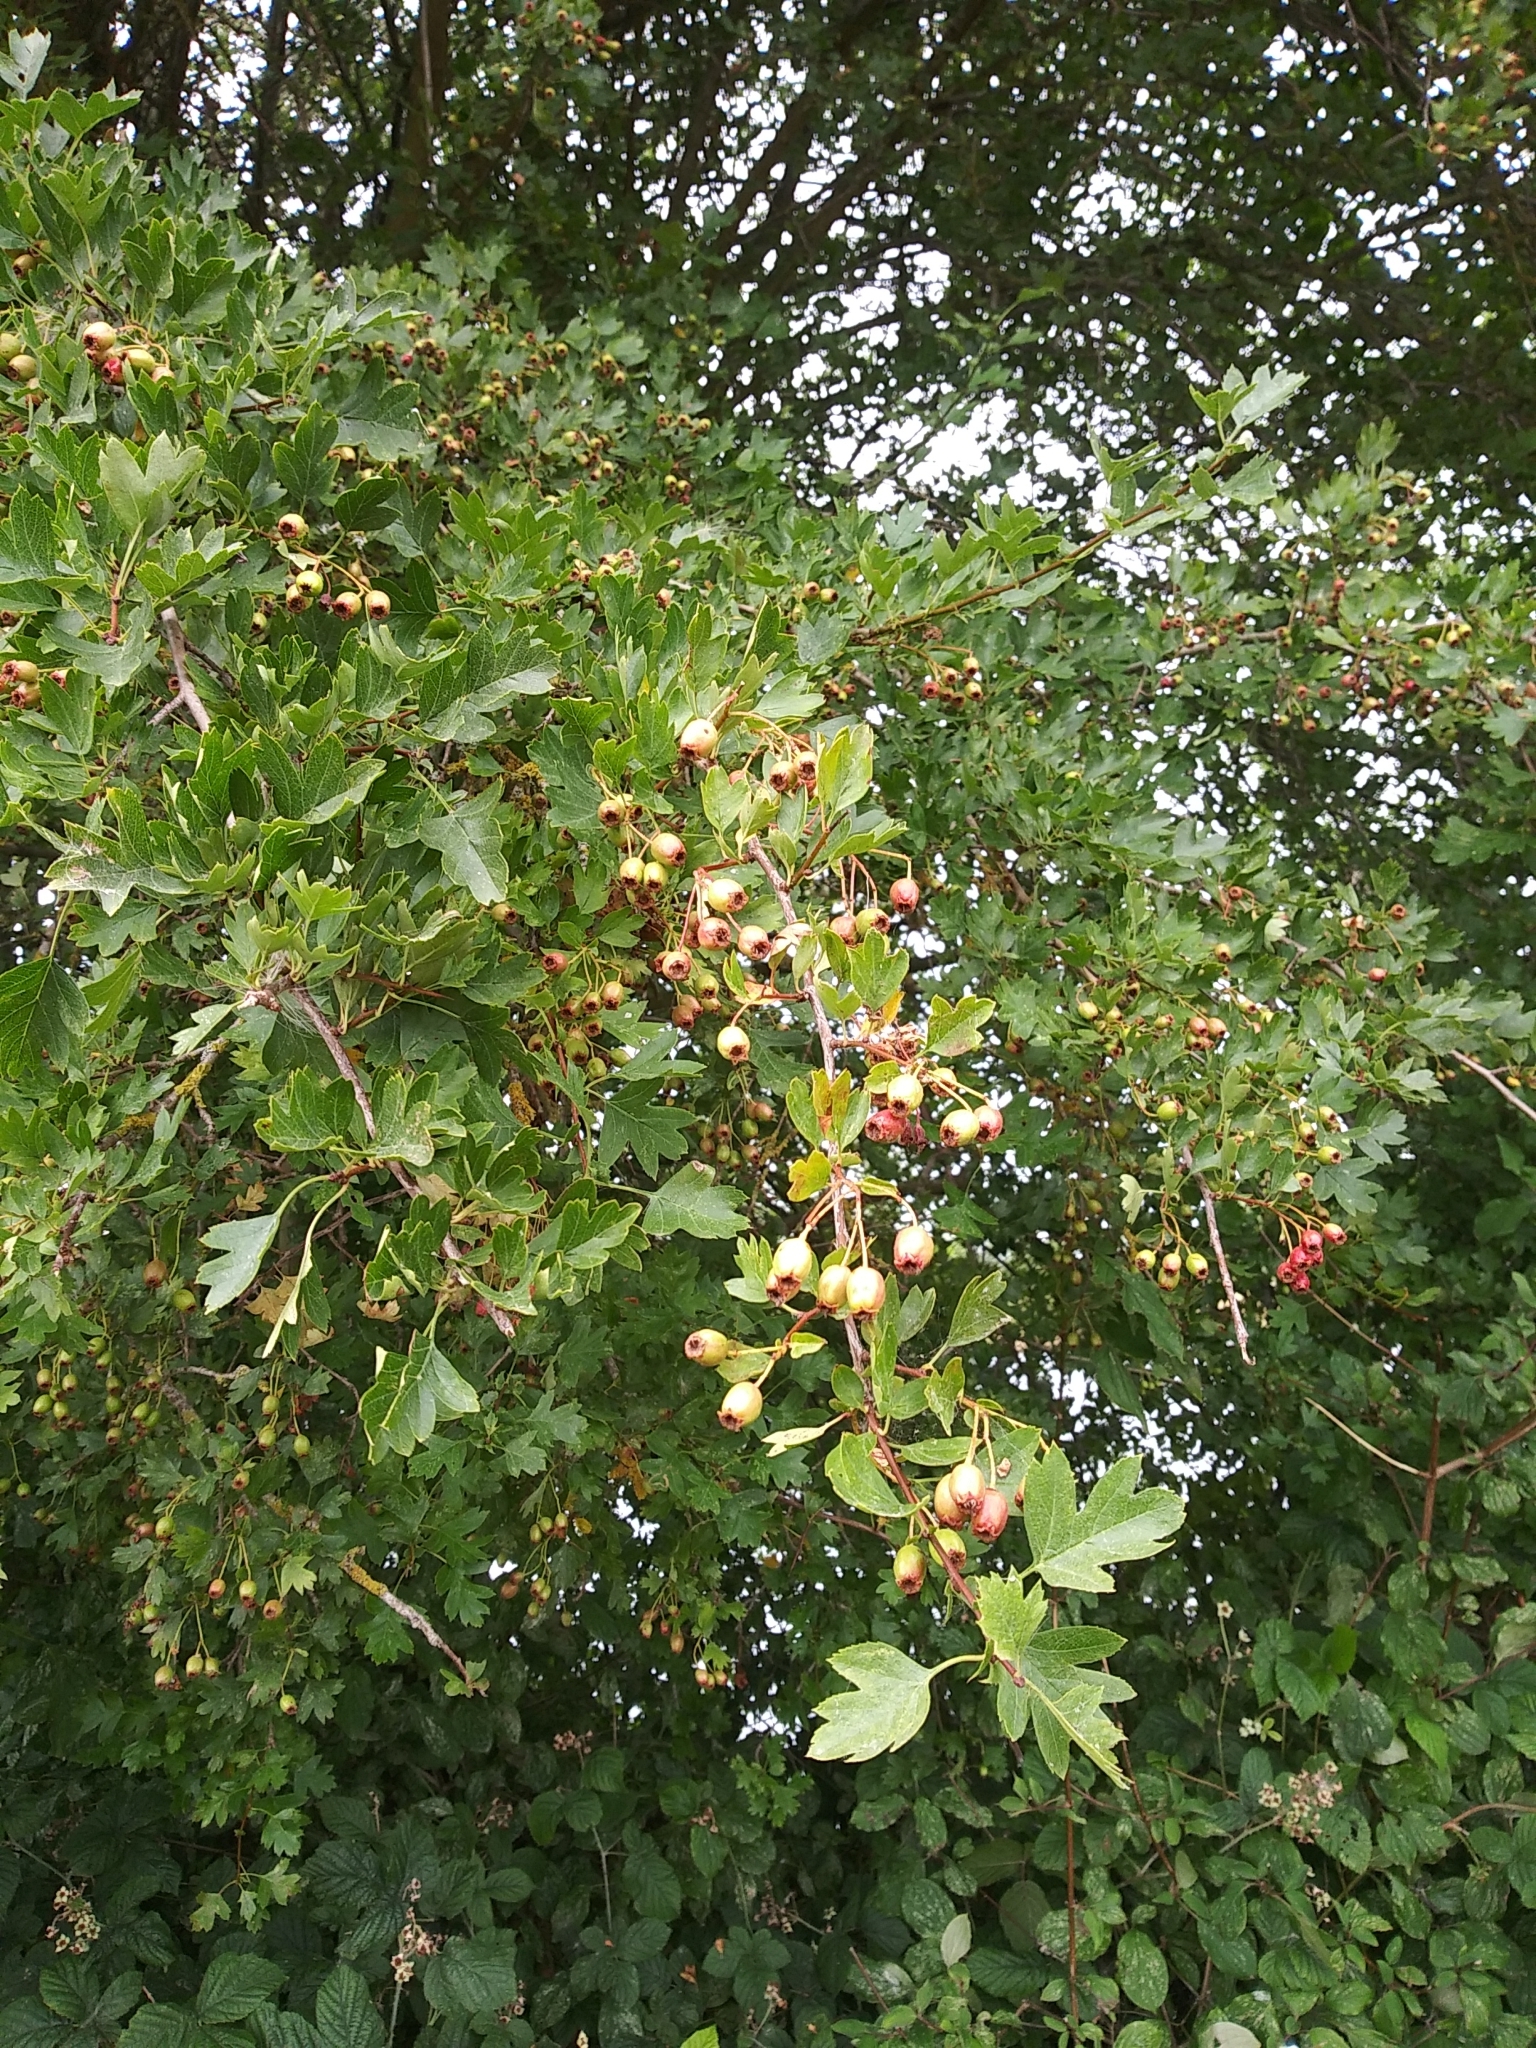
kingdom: Plantae
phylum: Tracheophyta
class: Magnoliopsida
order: Rosales
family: Rosaceae
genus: Crataegus
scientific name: Crataegus monogyna
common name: Hawthorn
